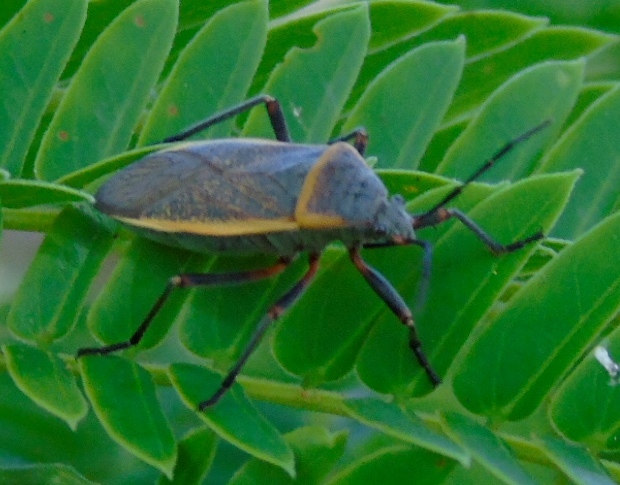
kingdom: Animalia
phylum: Arthropoda
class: Insecta
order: Hemiptera
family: Largidae
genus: Largus
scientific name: Largus
